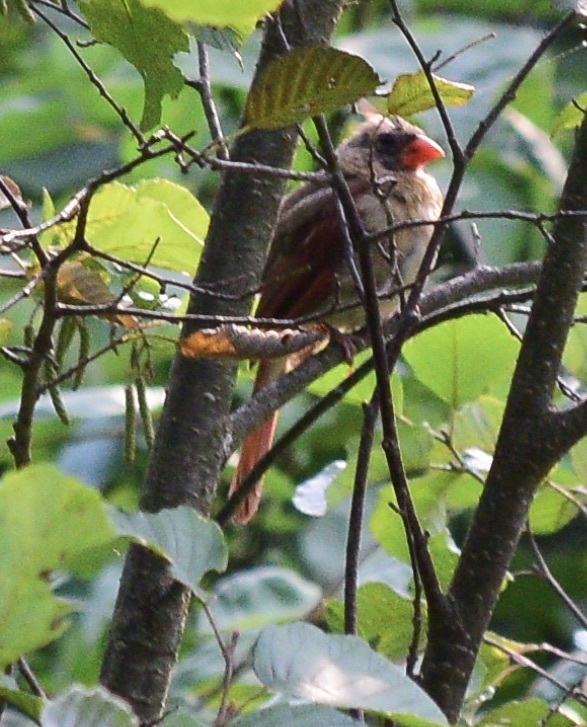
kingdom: Animalia
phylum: Chordata
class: Aves
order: Passeriformes
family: Cardinalidae
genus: Cardinalis
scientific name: Cardinalis cardinalis
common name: Northern cardinal
